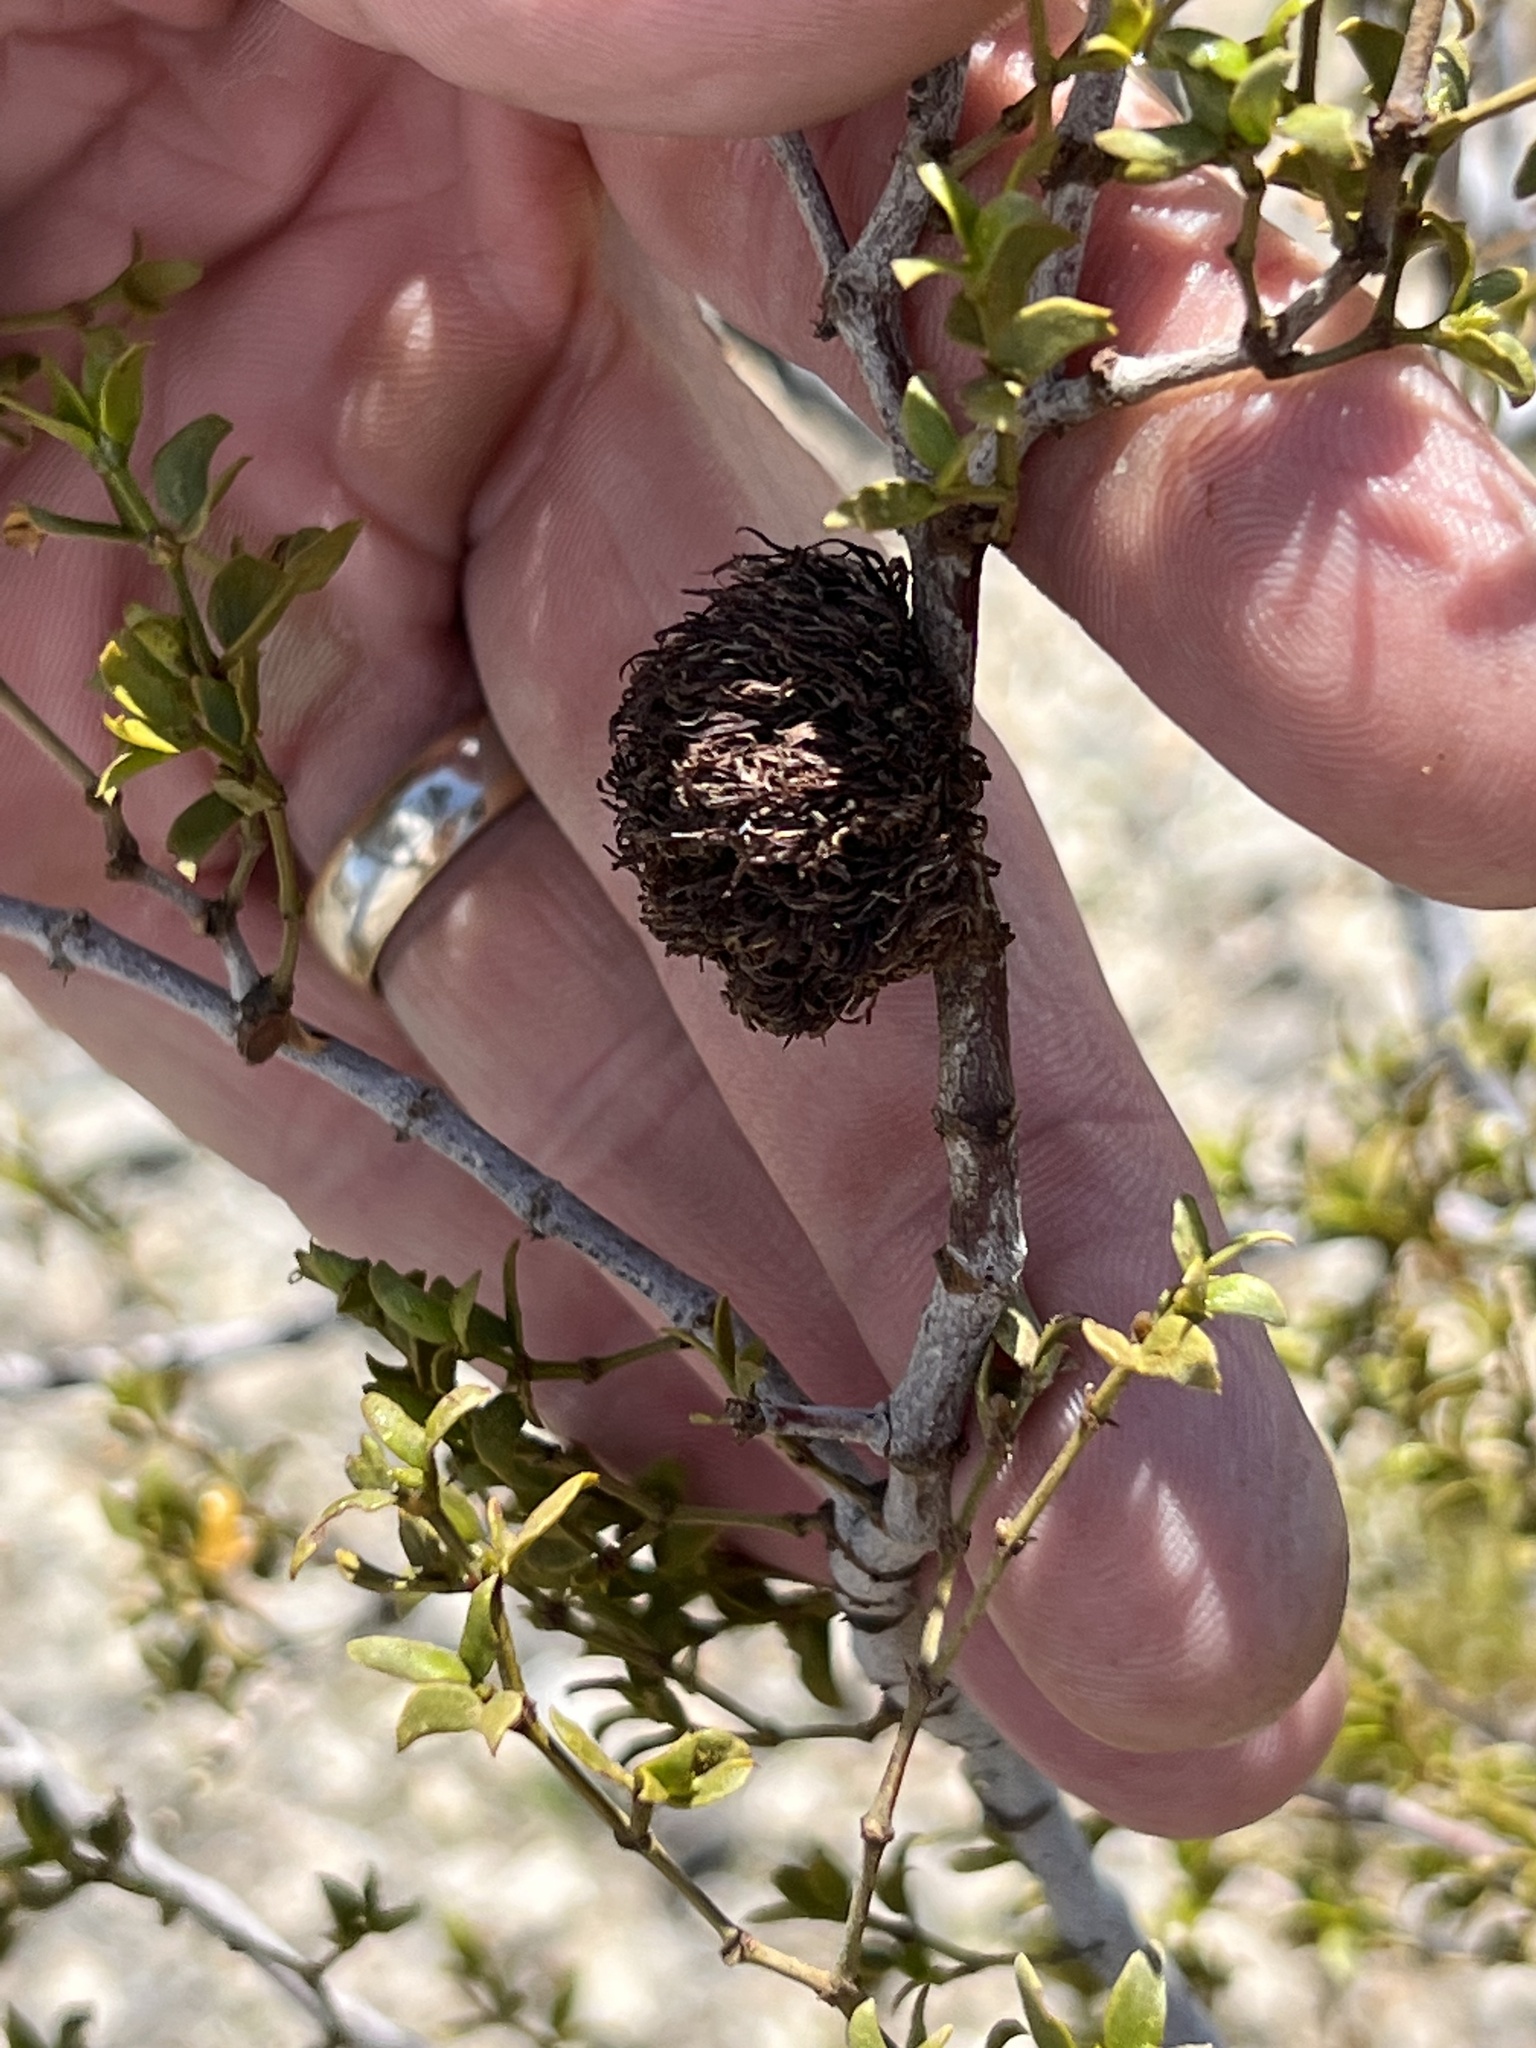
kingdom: Animalia
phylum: Arthropoda
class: Insecta
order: Diptera
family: Cecidomyiidae
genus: Asphondylia
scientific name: Asphondylia auripila
